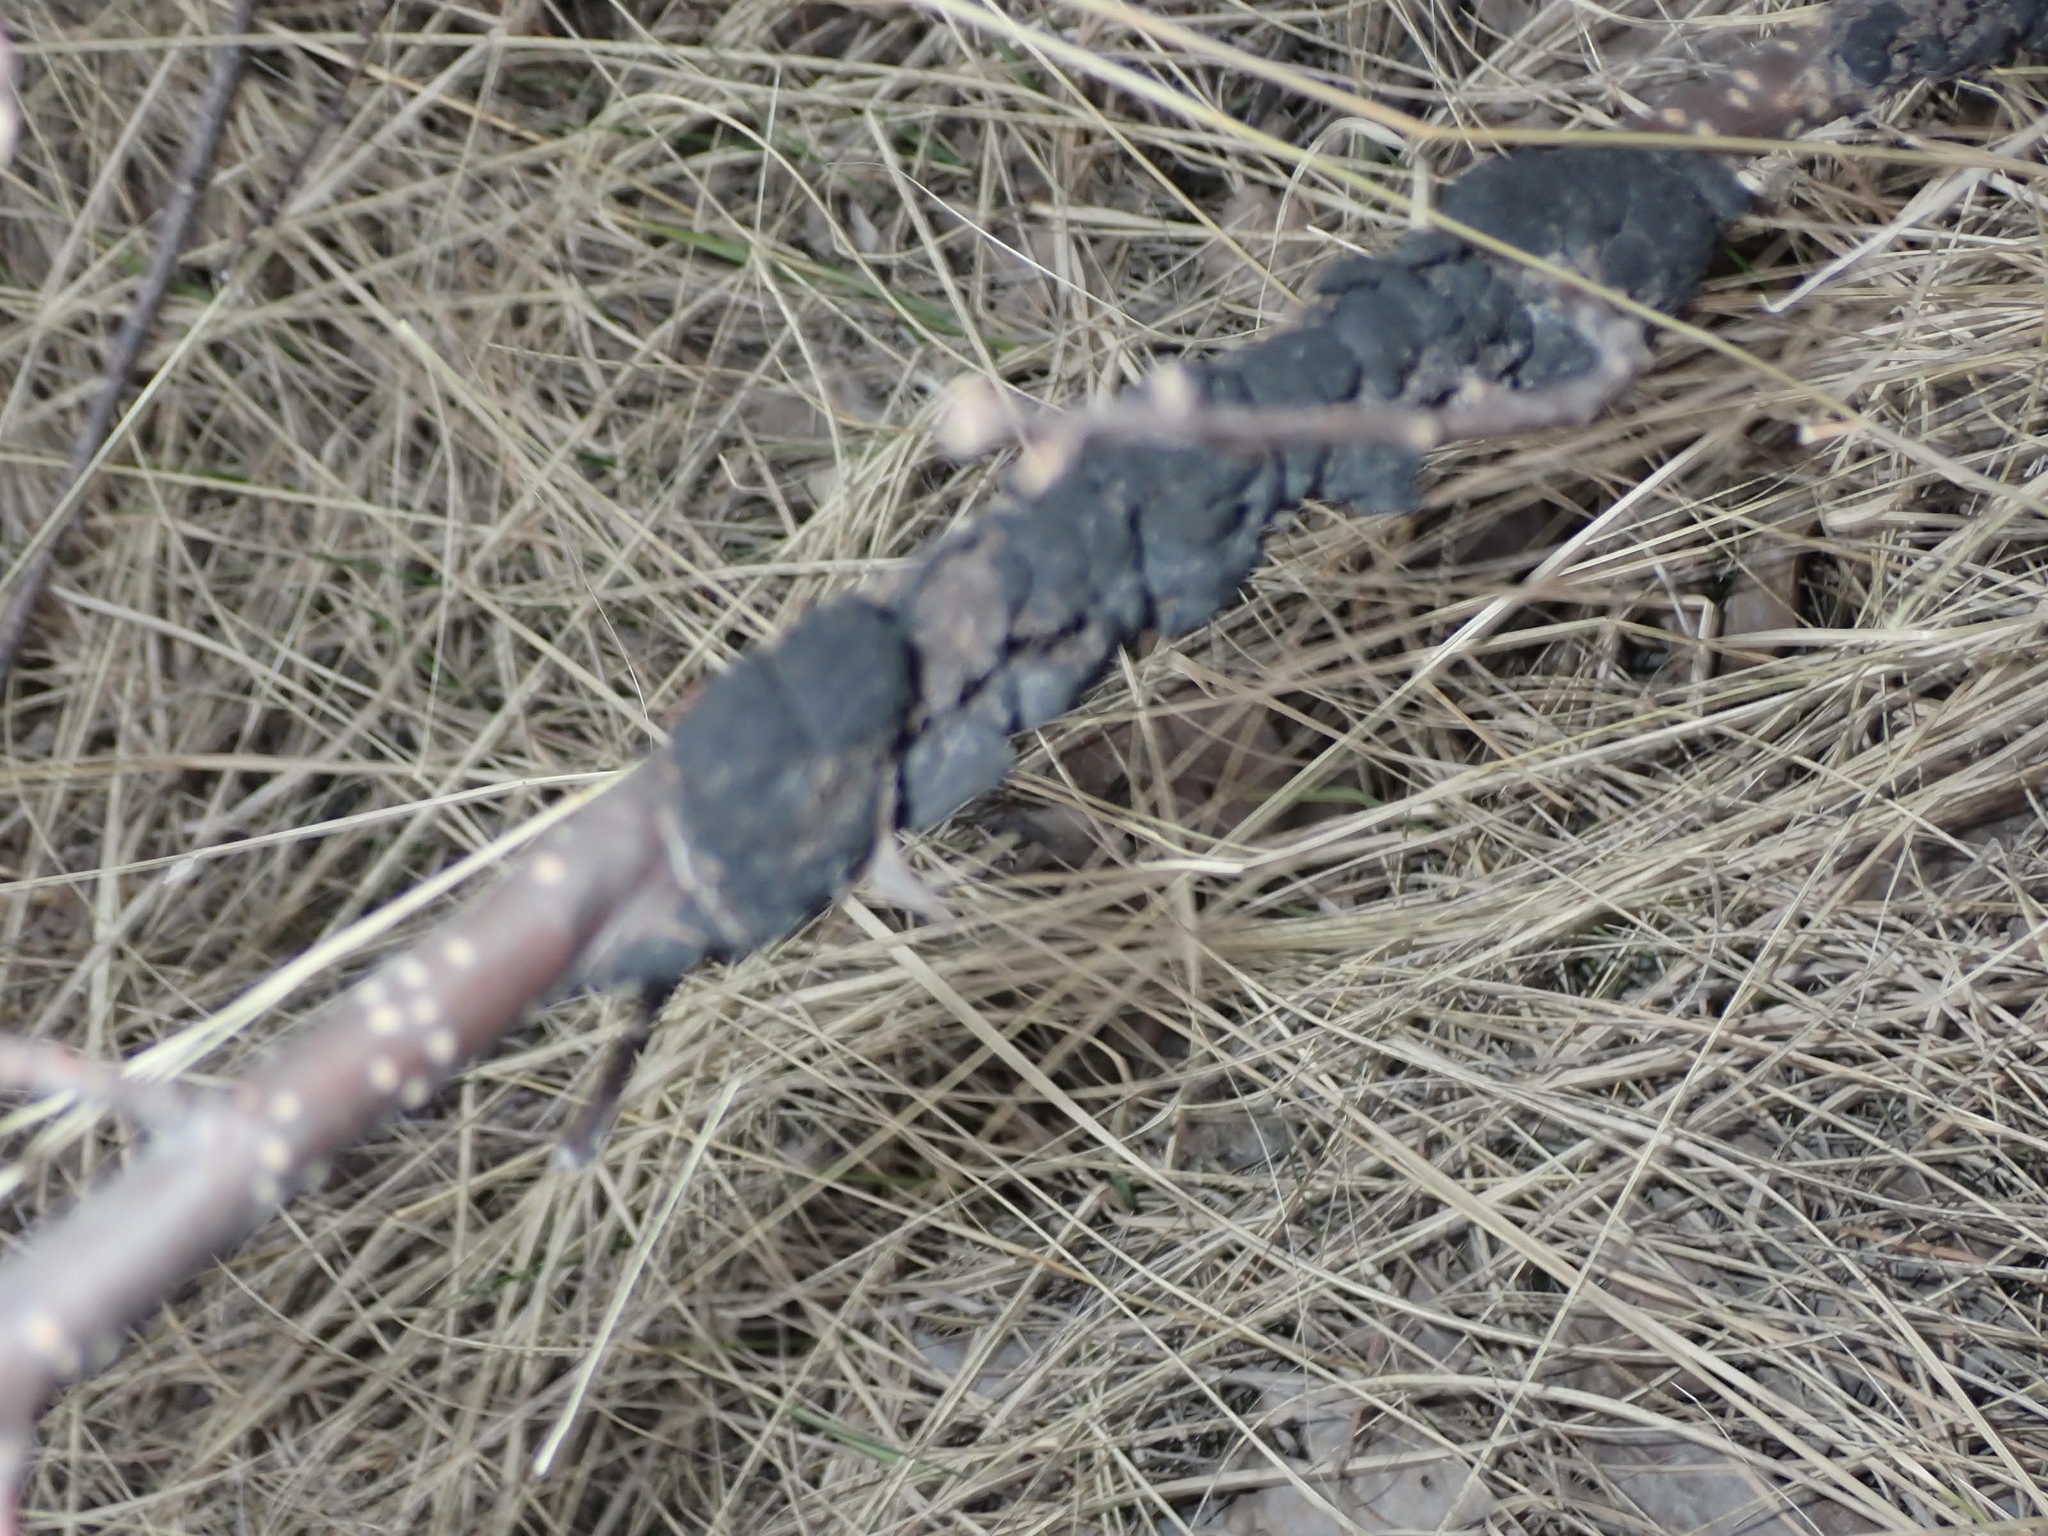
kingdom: Fungi
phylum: Ascomycota
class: Dothideomycetes
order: Venturiales
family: Venturiaceae
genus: Apiosporina
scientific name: Apiosporina morbosa
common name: Black knot
